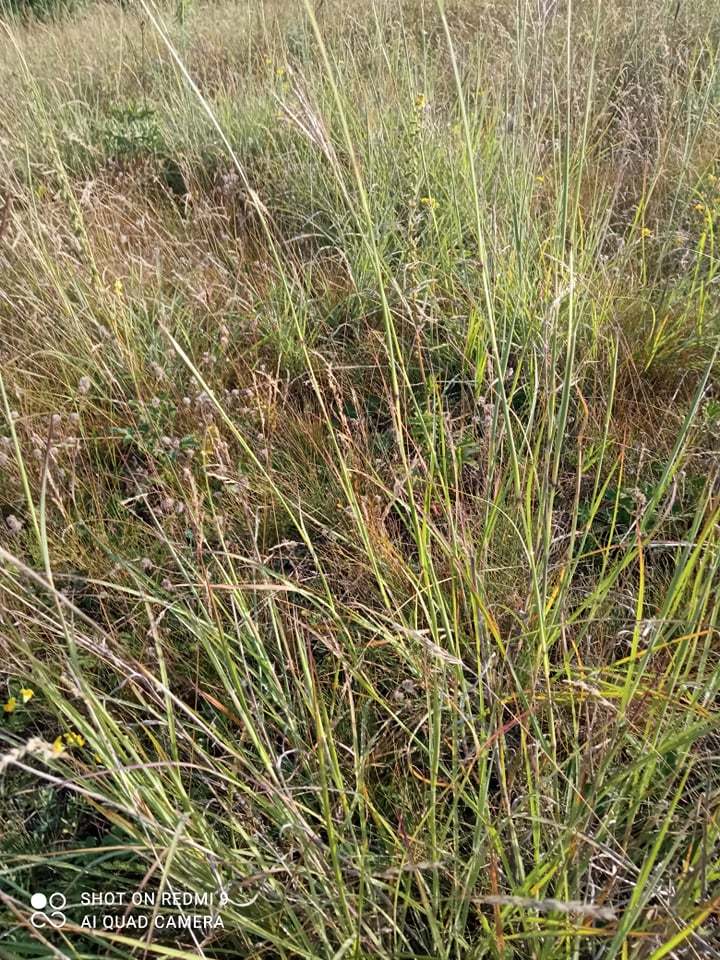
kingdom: Plantae
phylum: Tracheophyta
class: Liliopsida
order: Poales
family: Poaceae
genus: Bothriochloa
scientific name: Bothriochloa ischaemum
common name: Yellow bluestem
